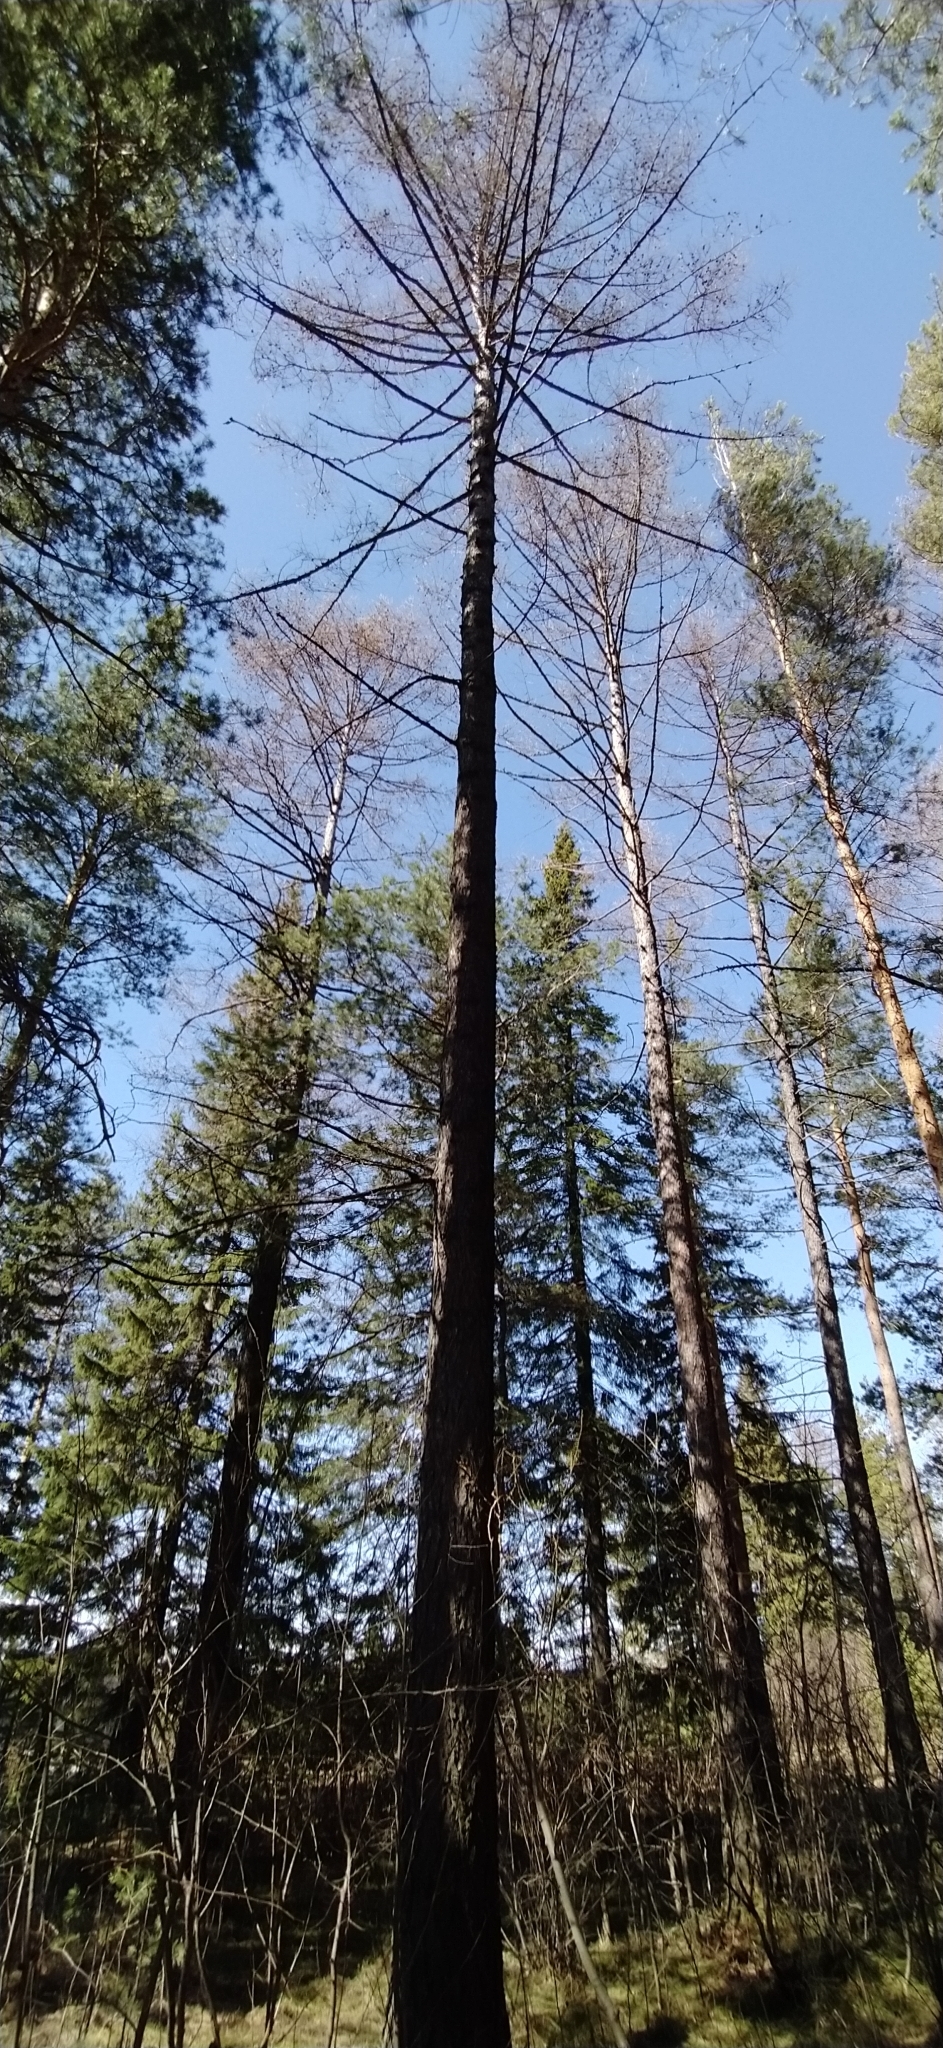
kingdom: Plantae
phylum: Tracheophyta
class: Pinopsida
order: Pinales
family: Pinaceae
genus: Larix
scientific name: Larix sibirica
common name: Siberian larch
